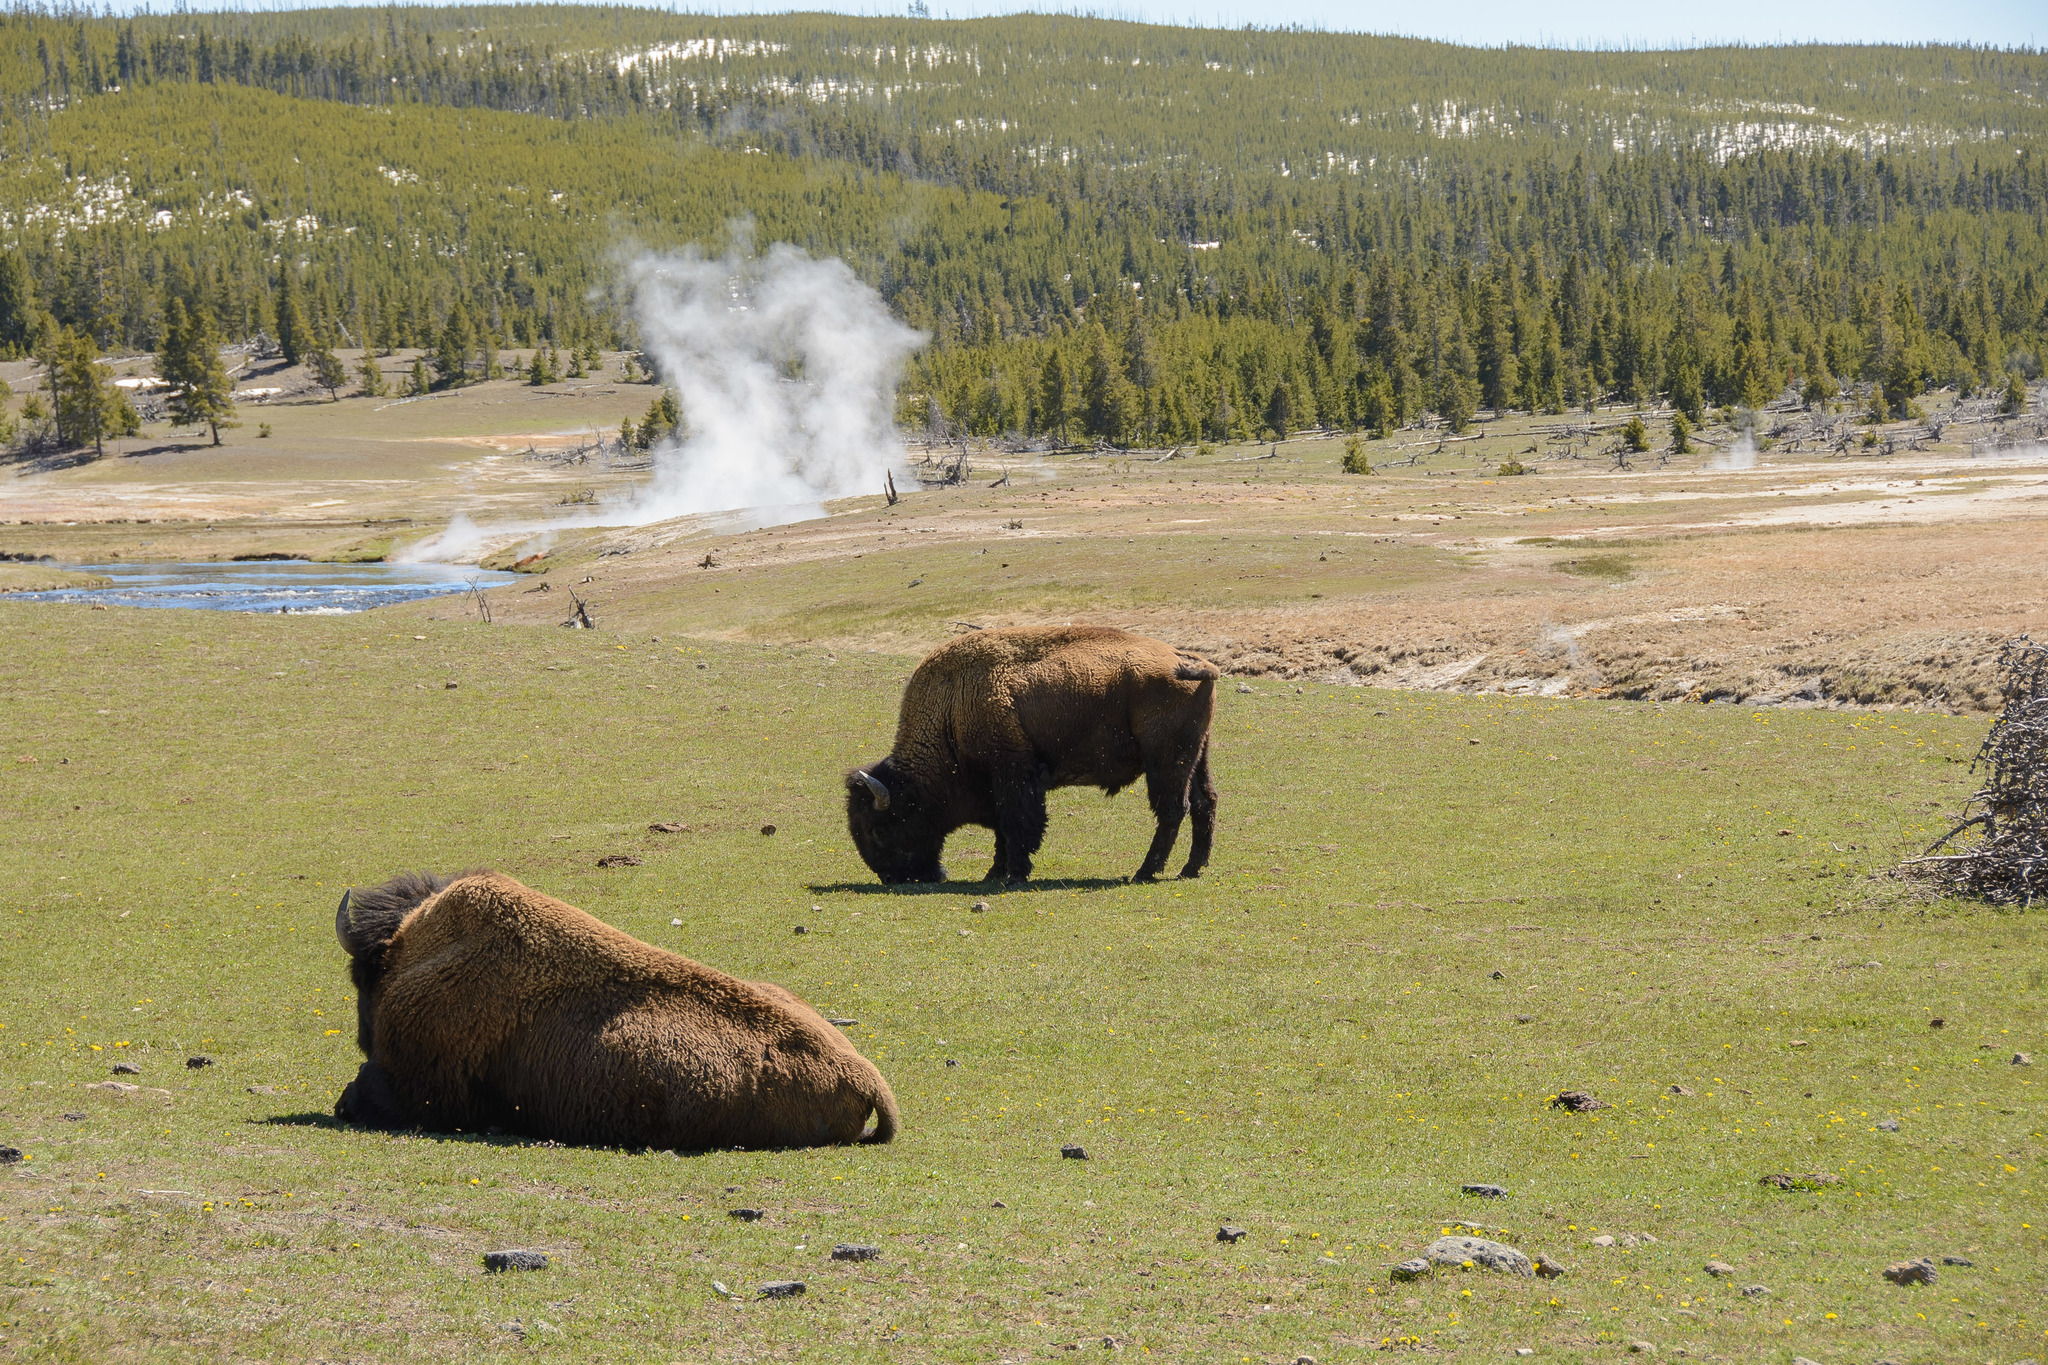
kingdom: Animalia
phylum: Chordata
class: Mammalia
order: Artiodactyla
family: Bovidae
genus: Bison
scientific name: Bison bison
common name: American bison
